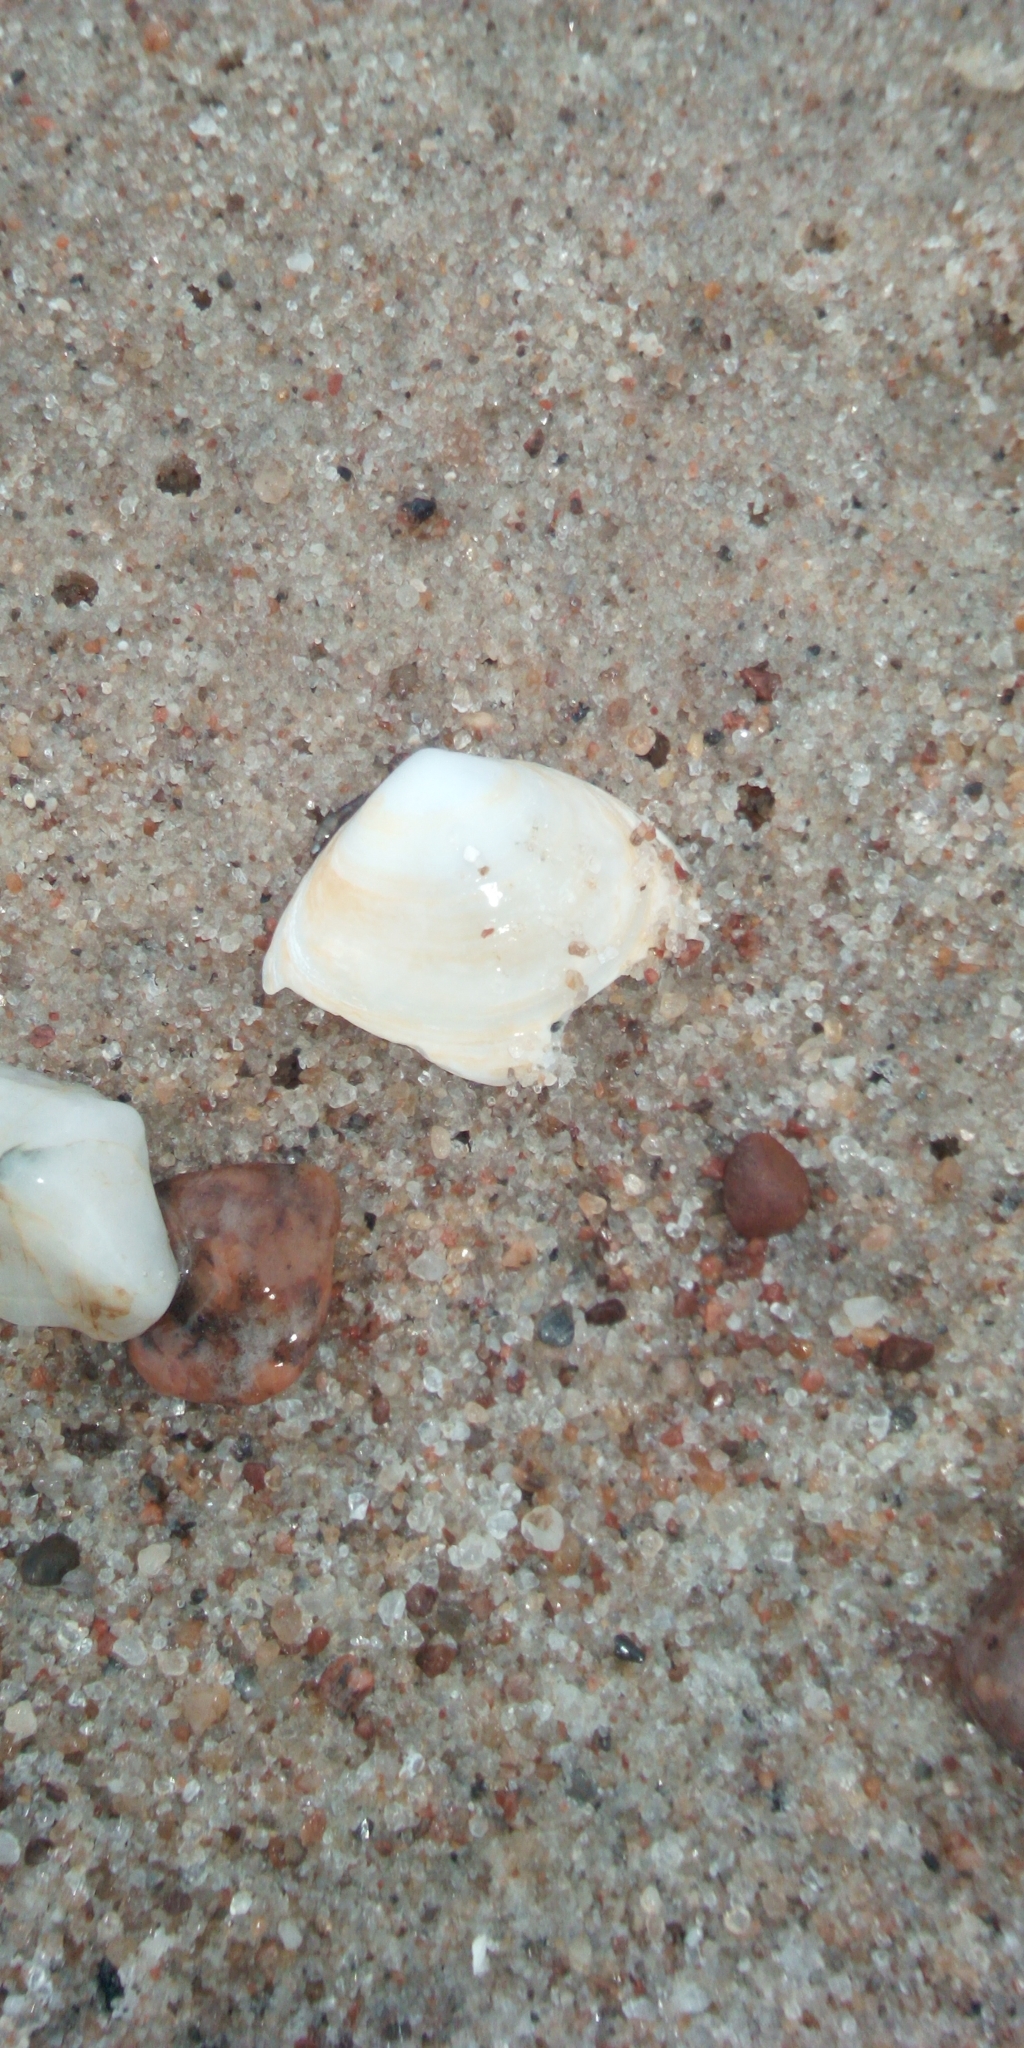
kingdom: Animalia
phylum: Mollusca
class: Bivalvia
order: Cardiida
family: Tellinidae
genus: Macoma
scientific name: Macoma balthica
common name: Baltic tellin
